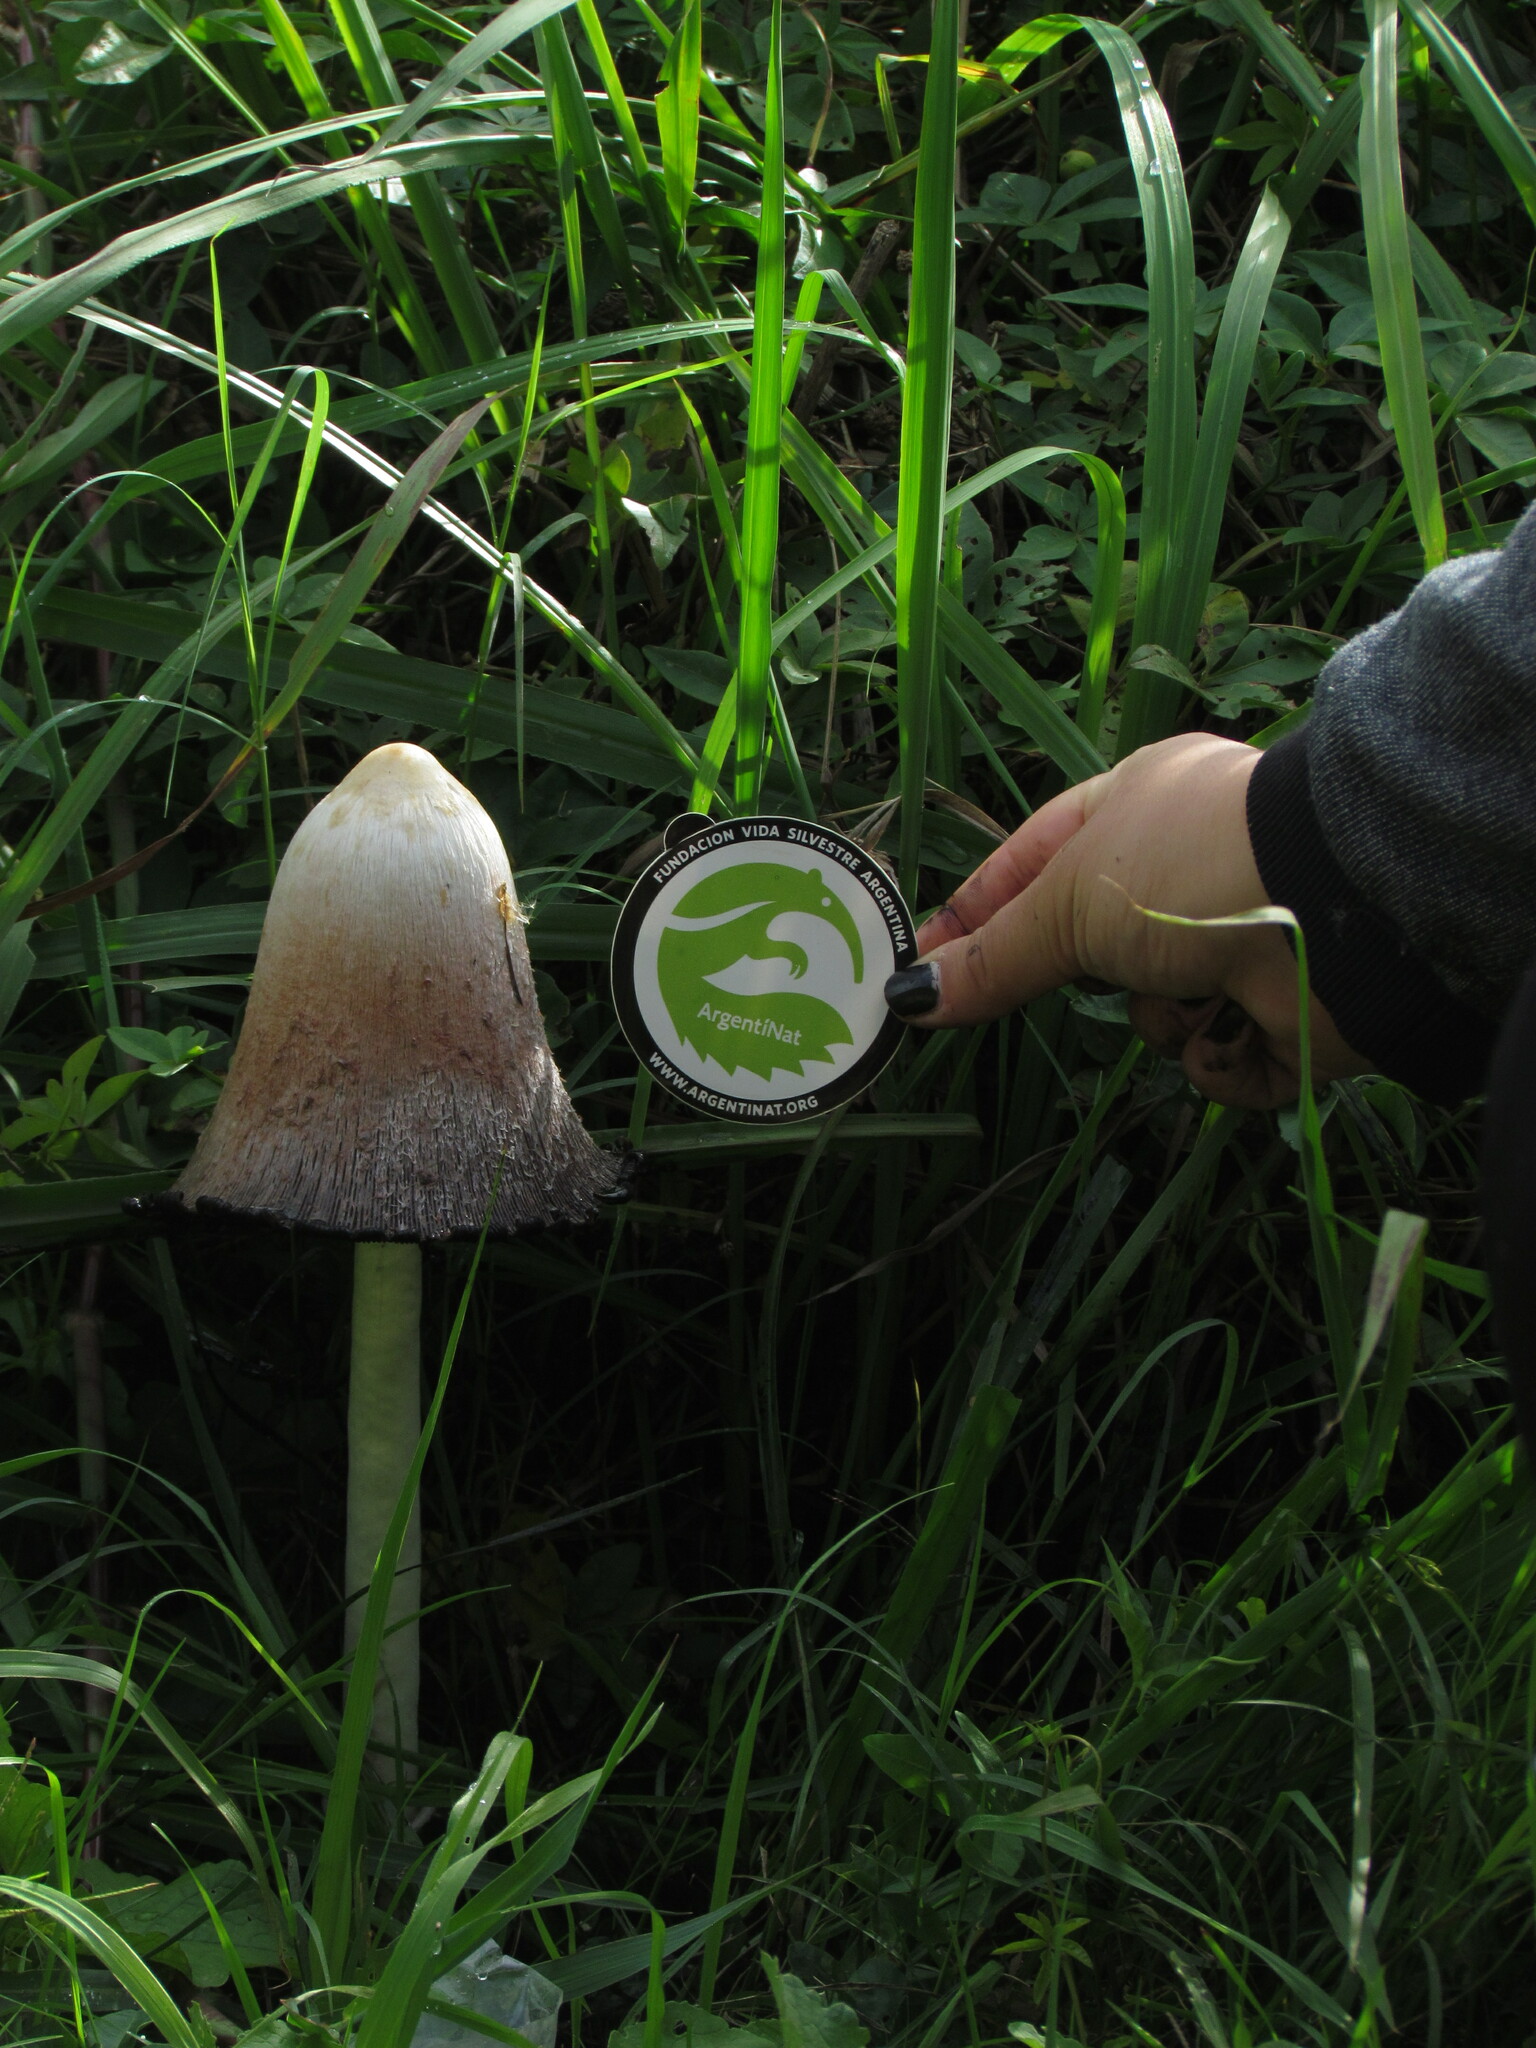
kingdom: Fungi
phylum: Basidiomycota
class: Agaricomycetes
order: Agaricales
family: Agaricaceae
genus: Coprinus
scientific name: Coprinus comatus
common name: Lawyer's wig
